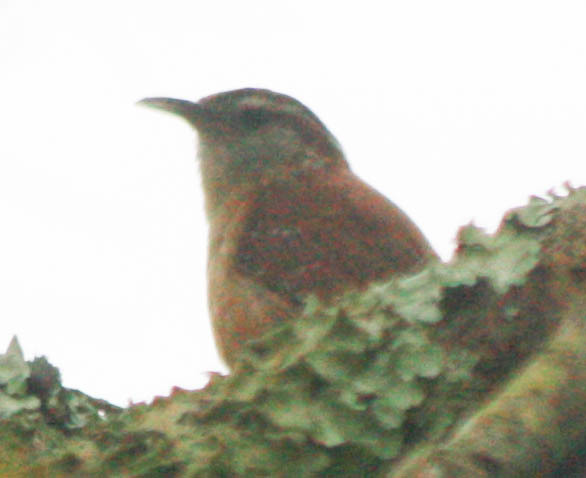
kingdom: Animalia
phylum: Chordata
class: Aves
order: Passeriformes
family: Troglodytidae
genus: Thryothorus
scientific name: Thryothorus ludovicianus
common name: Carolina wren
